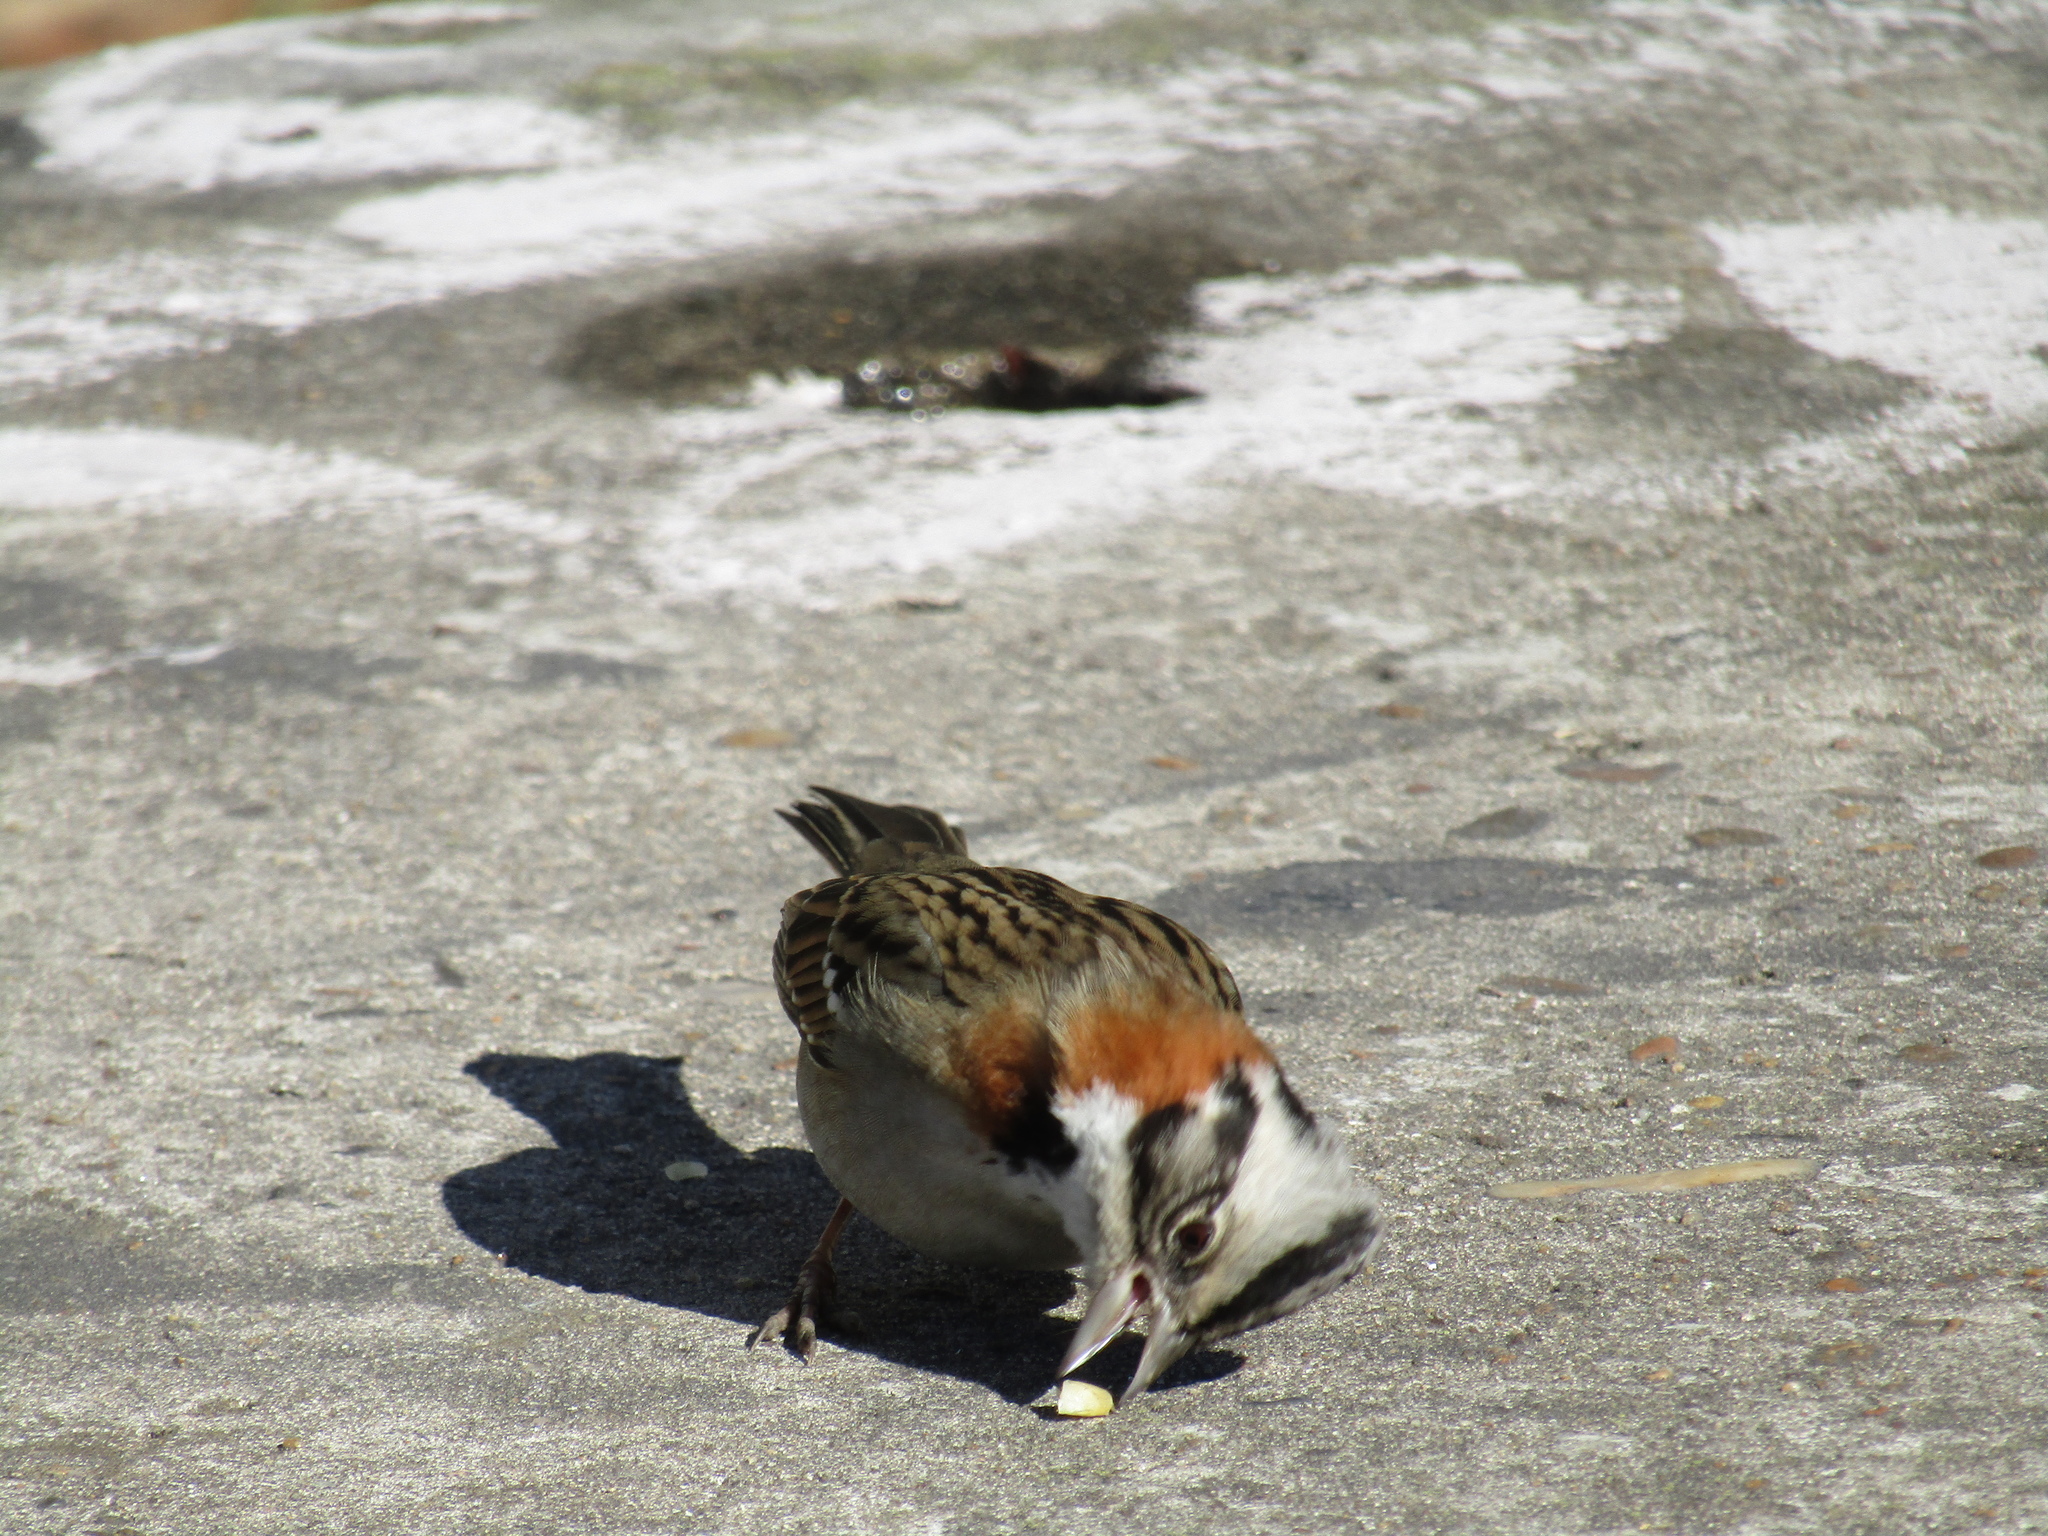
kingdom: Animalia
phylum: Chordata
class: Aves
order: Passeriformes
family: Passerellidae
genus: Zonotrichia
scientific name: Zonotrichia capensis
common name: Rufous-collared sparrow
